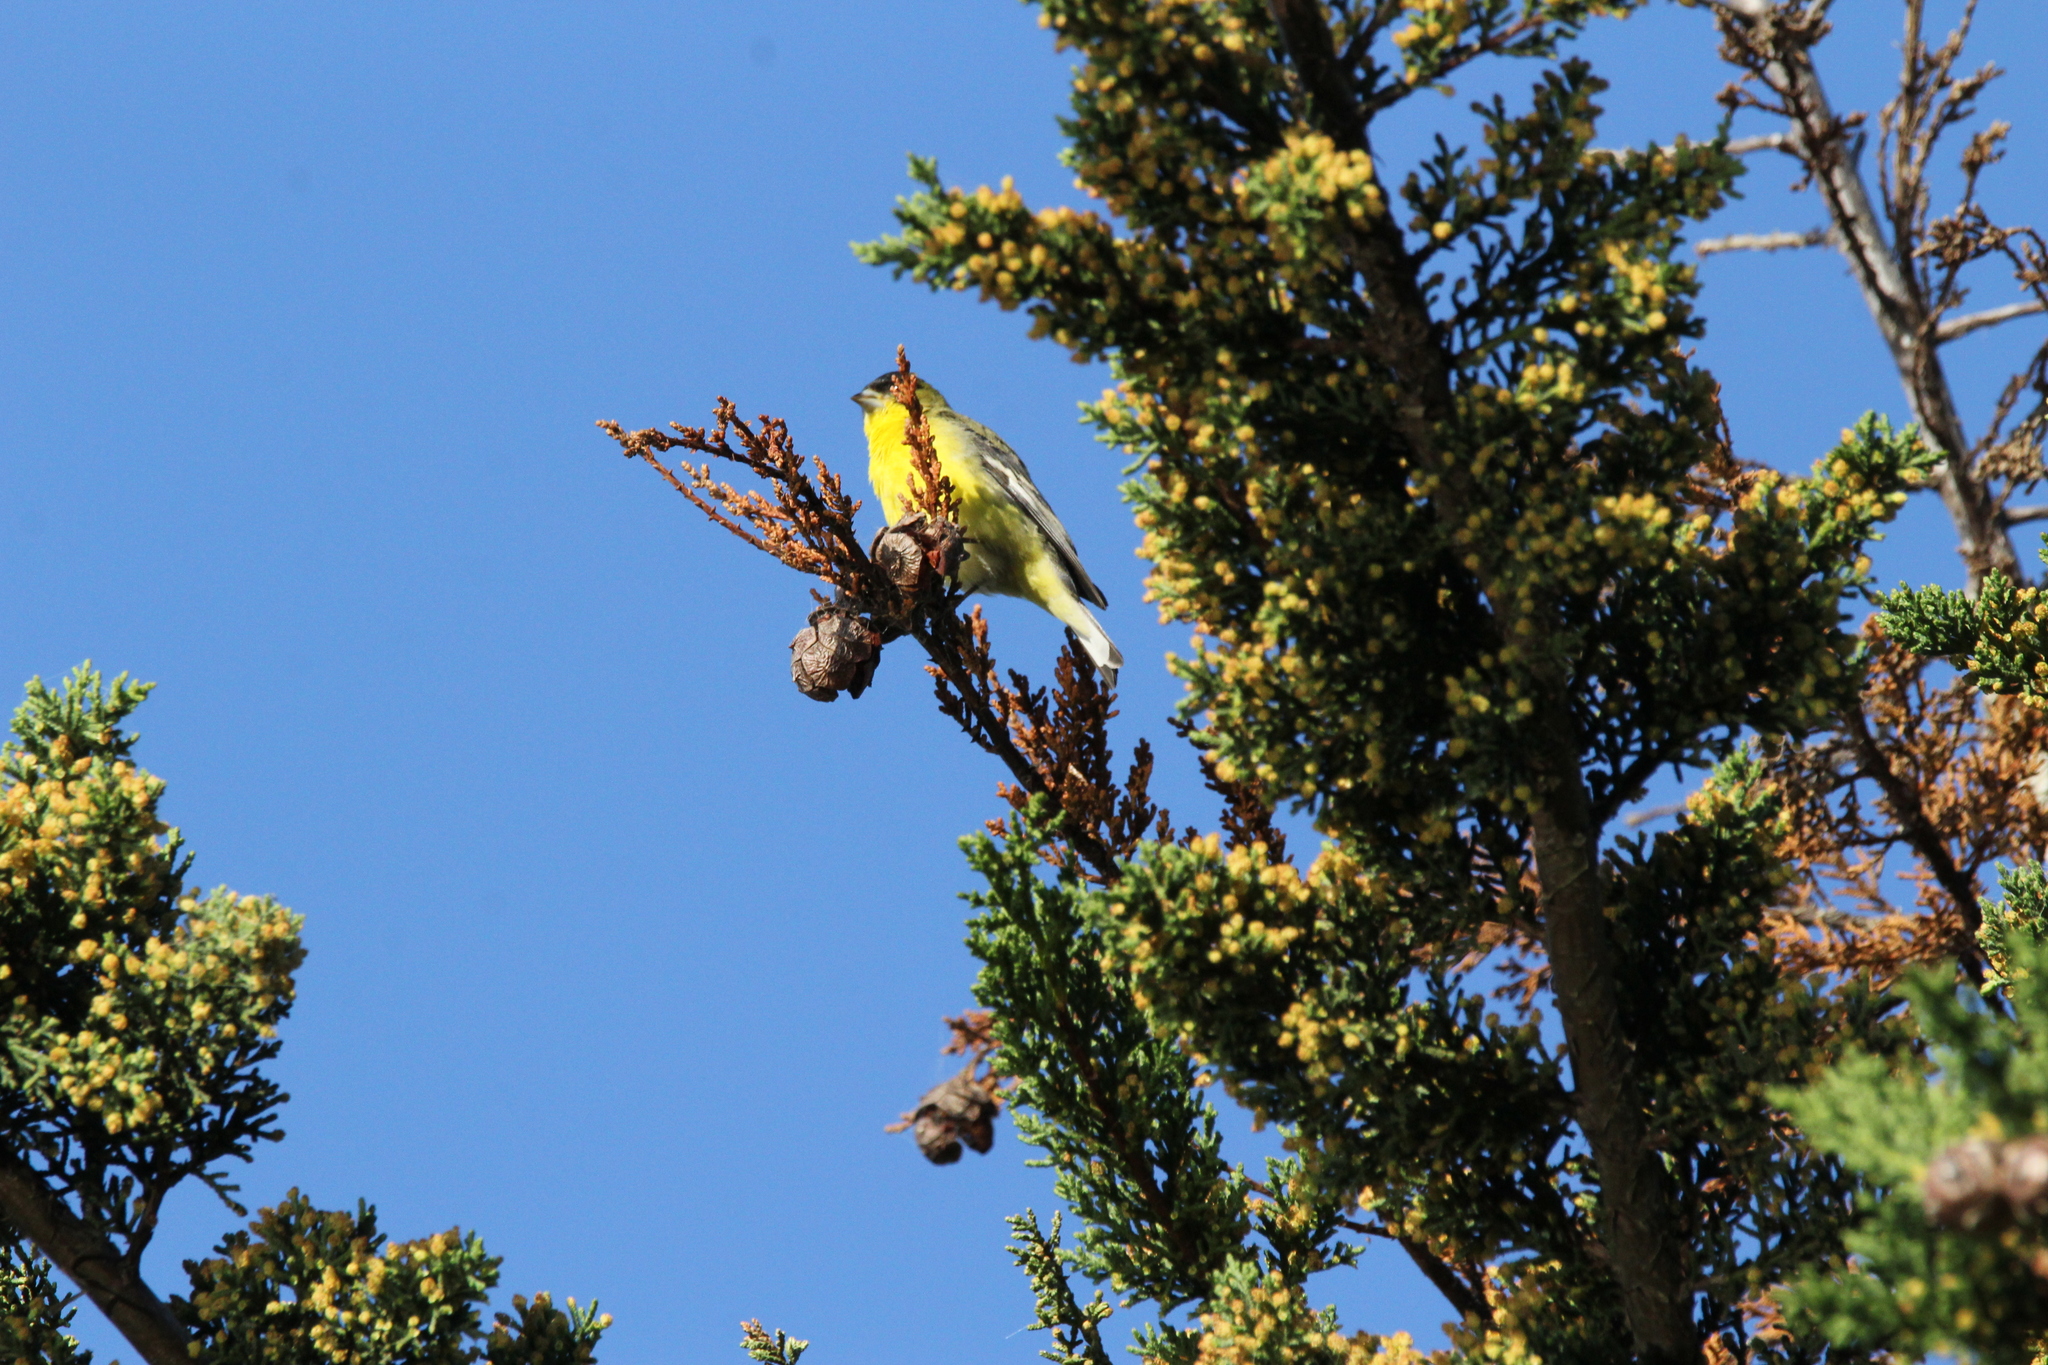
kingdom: Animalia
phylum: Chordata
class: Aves
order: Passeriformes
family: Fringillidae
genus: Spinus
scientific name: Spinus psaltria
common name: Lesser goldfinch
